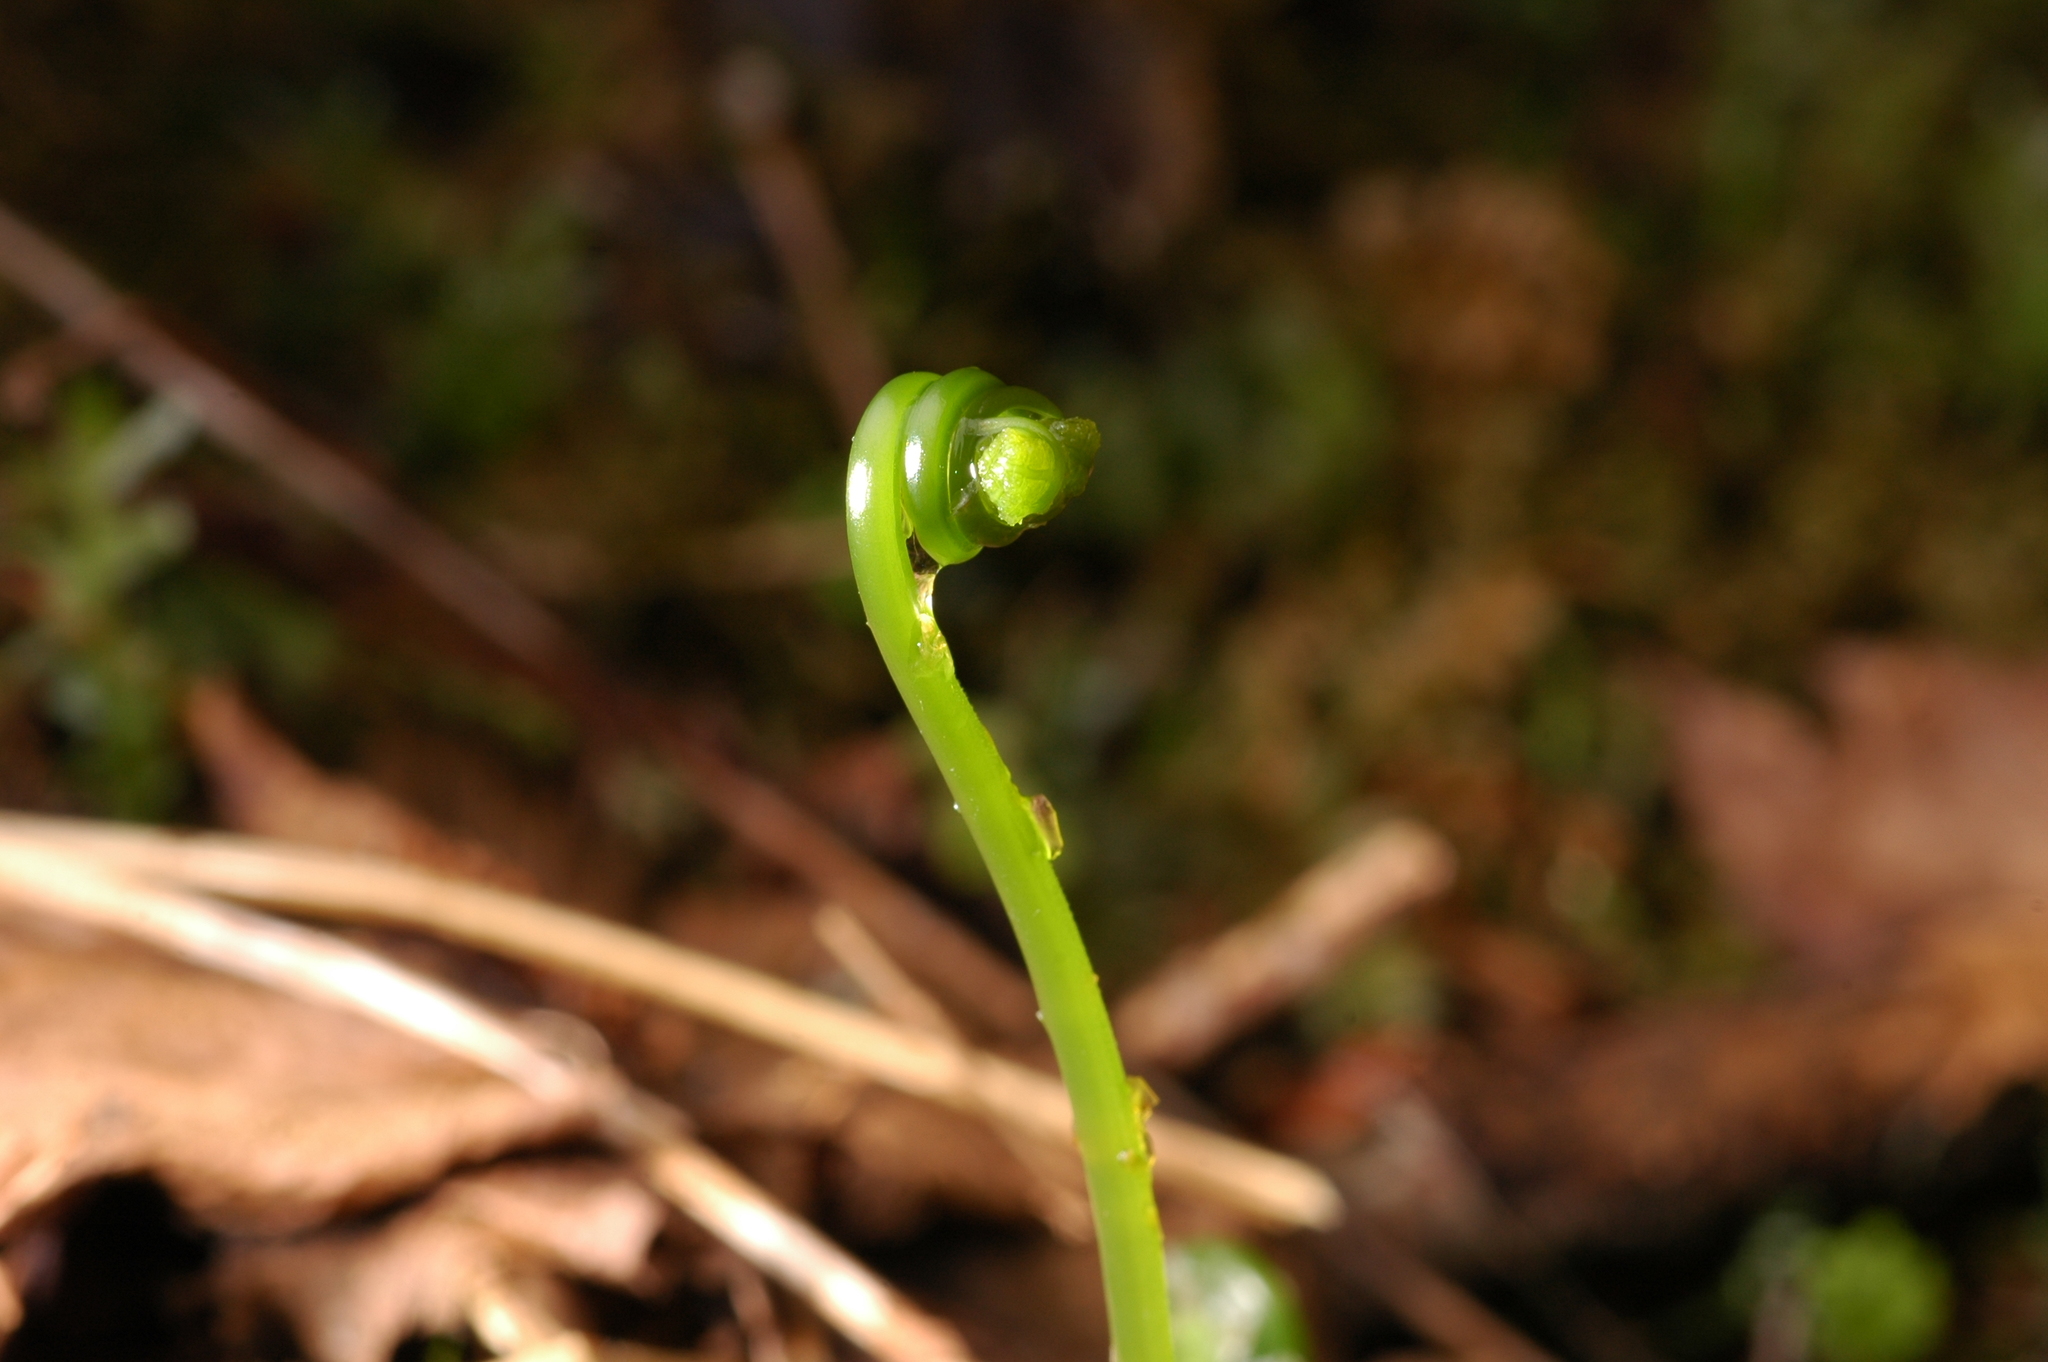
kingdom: Plantae
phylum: Tracheophyta
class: Polypodiopsida
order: Polypodiales
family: Cystopteridaceae
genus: Gymnocarpium
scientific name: Gymnocarpium disjunctum
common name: Western oak fern
